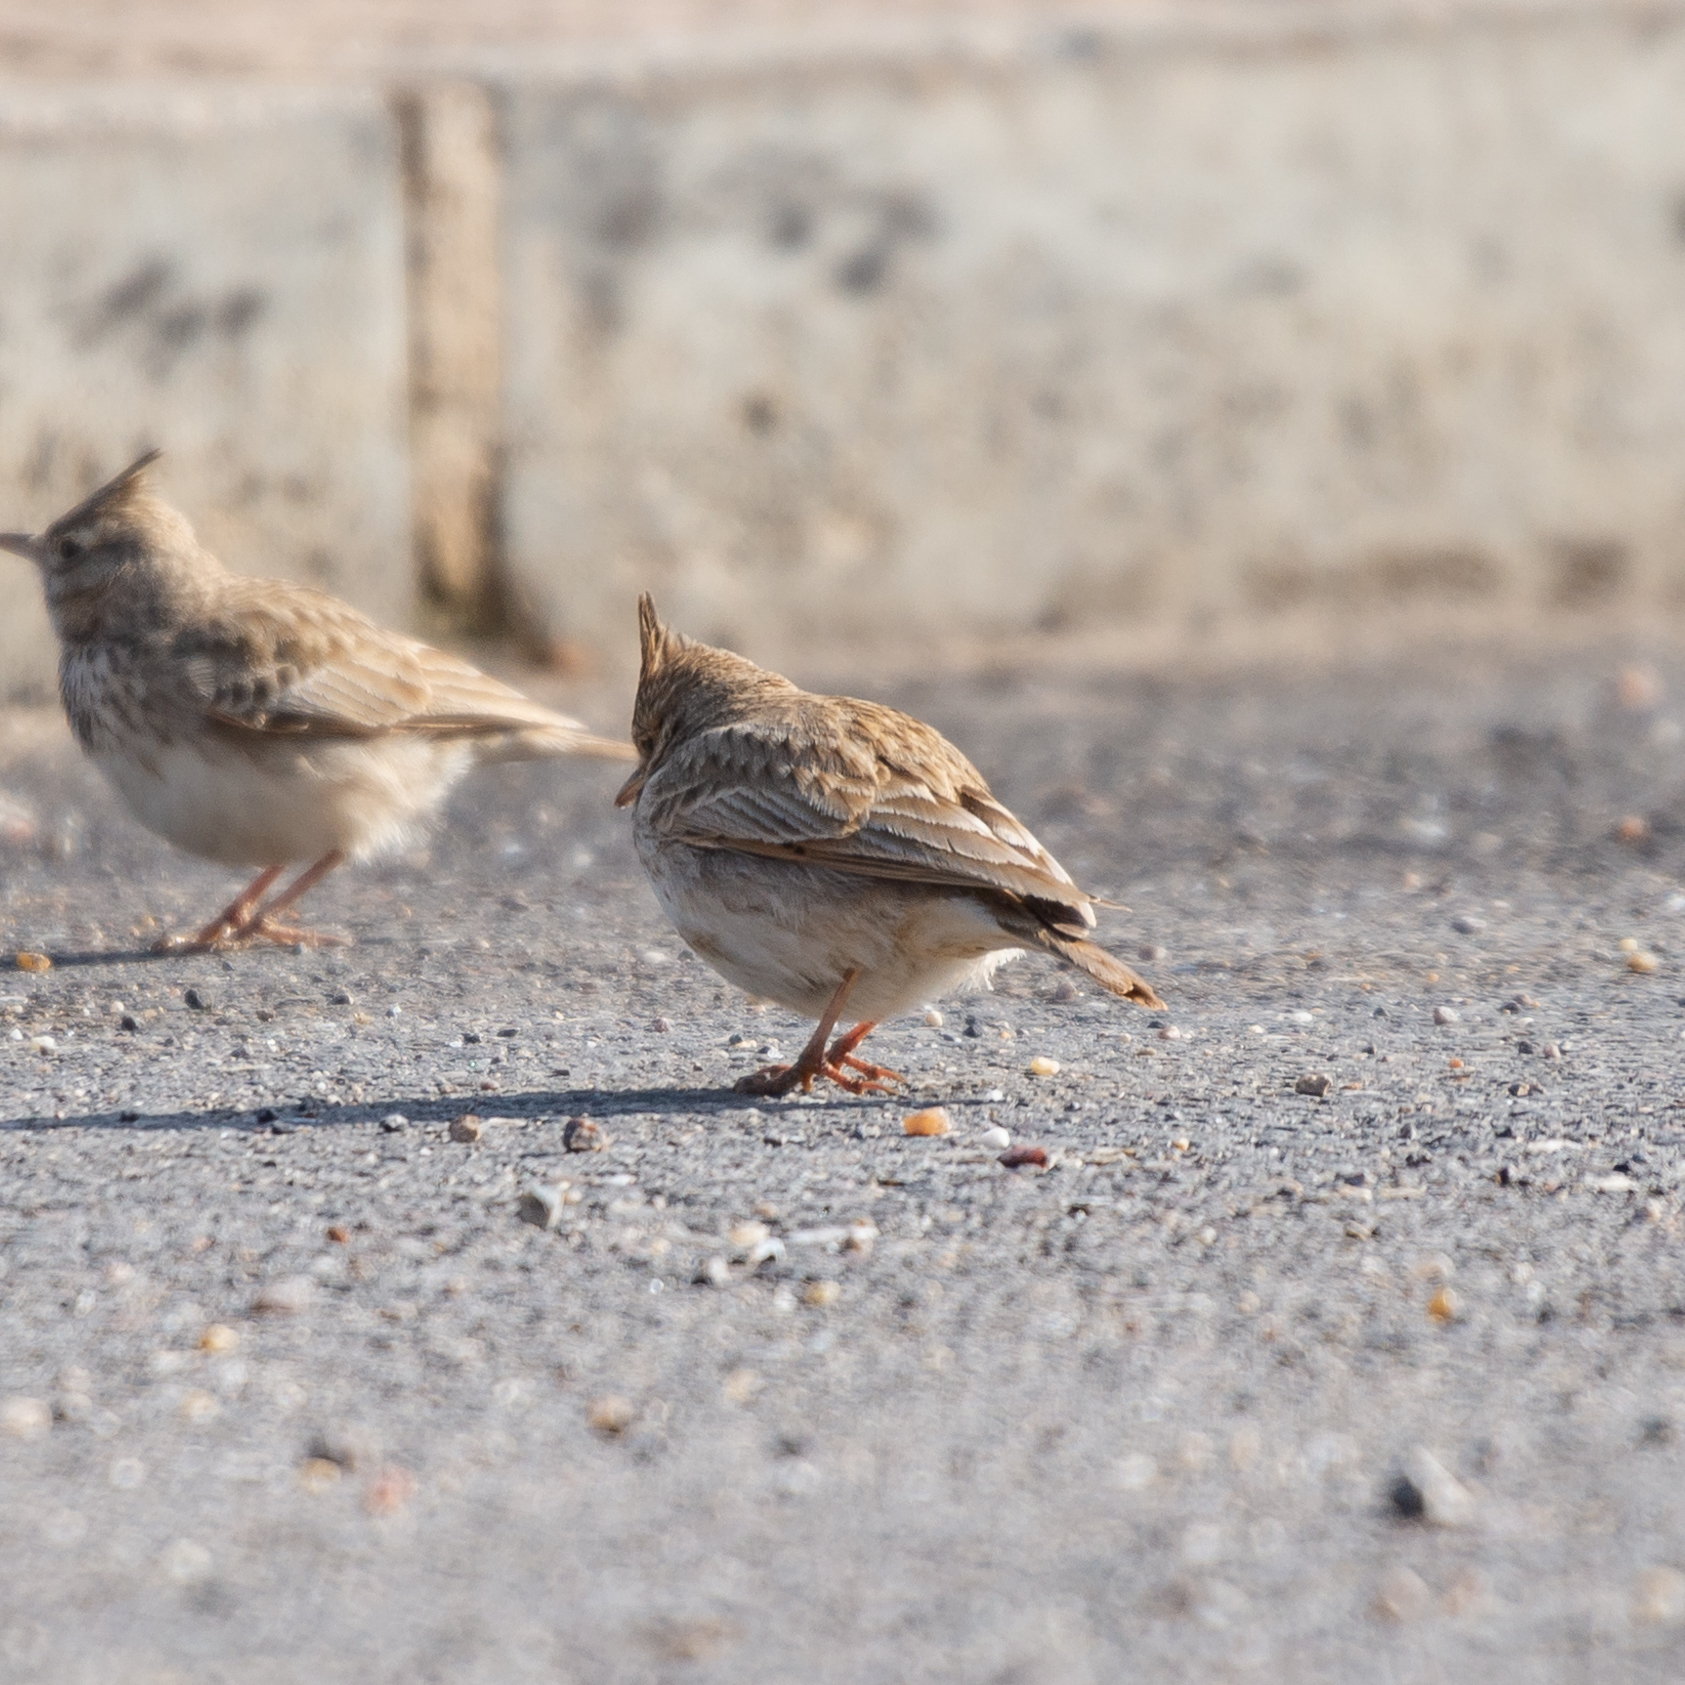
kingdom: Animalia
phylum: Chordata
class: Aves
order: Passeriformes
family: Alaudidae
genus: Galerida
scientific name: Galerida cristata
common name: Crested lark
